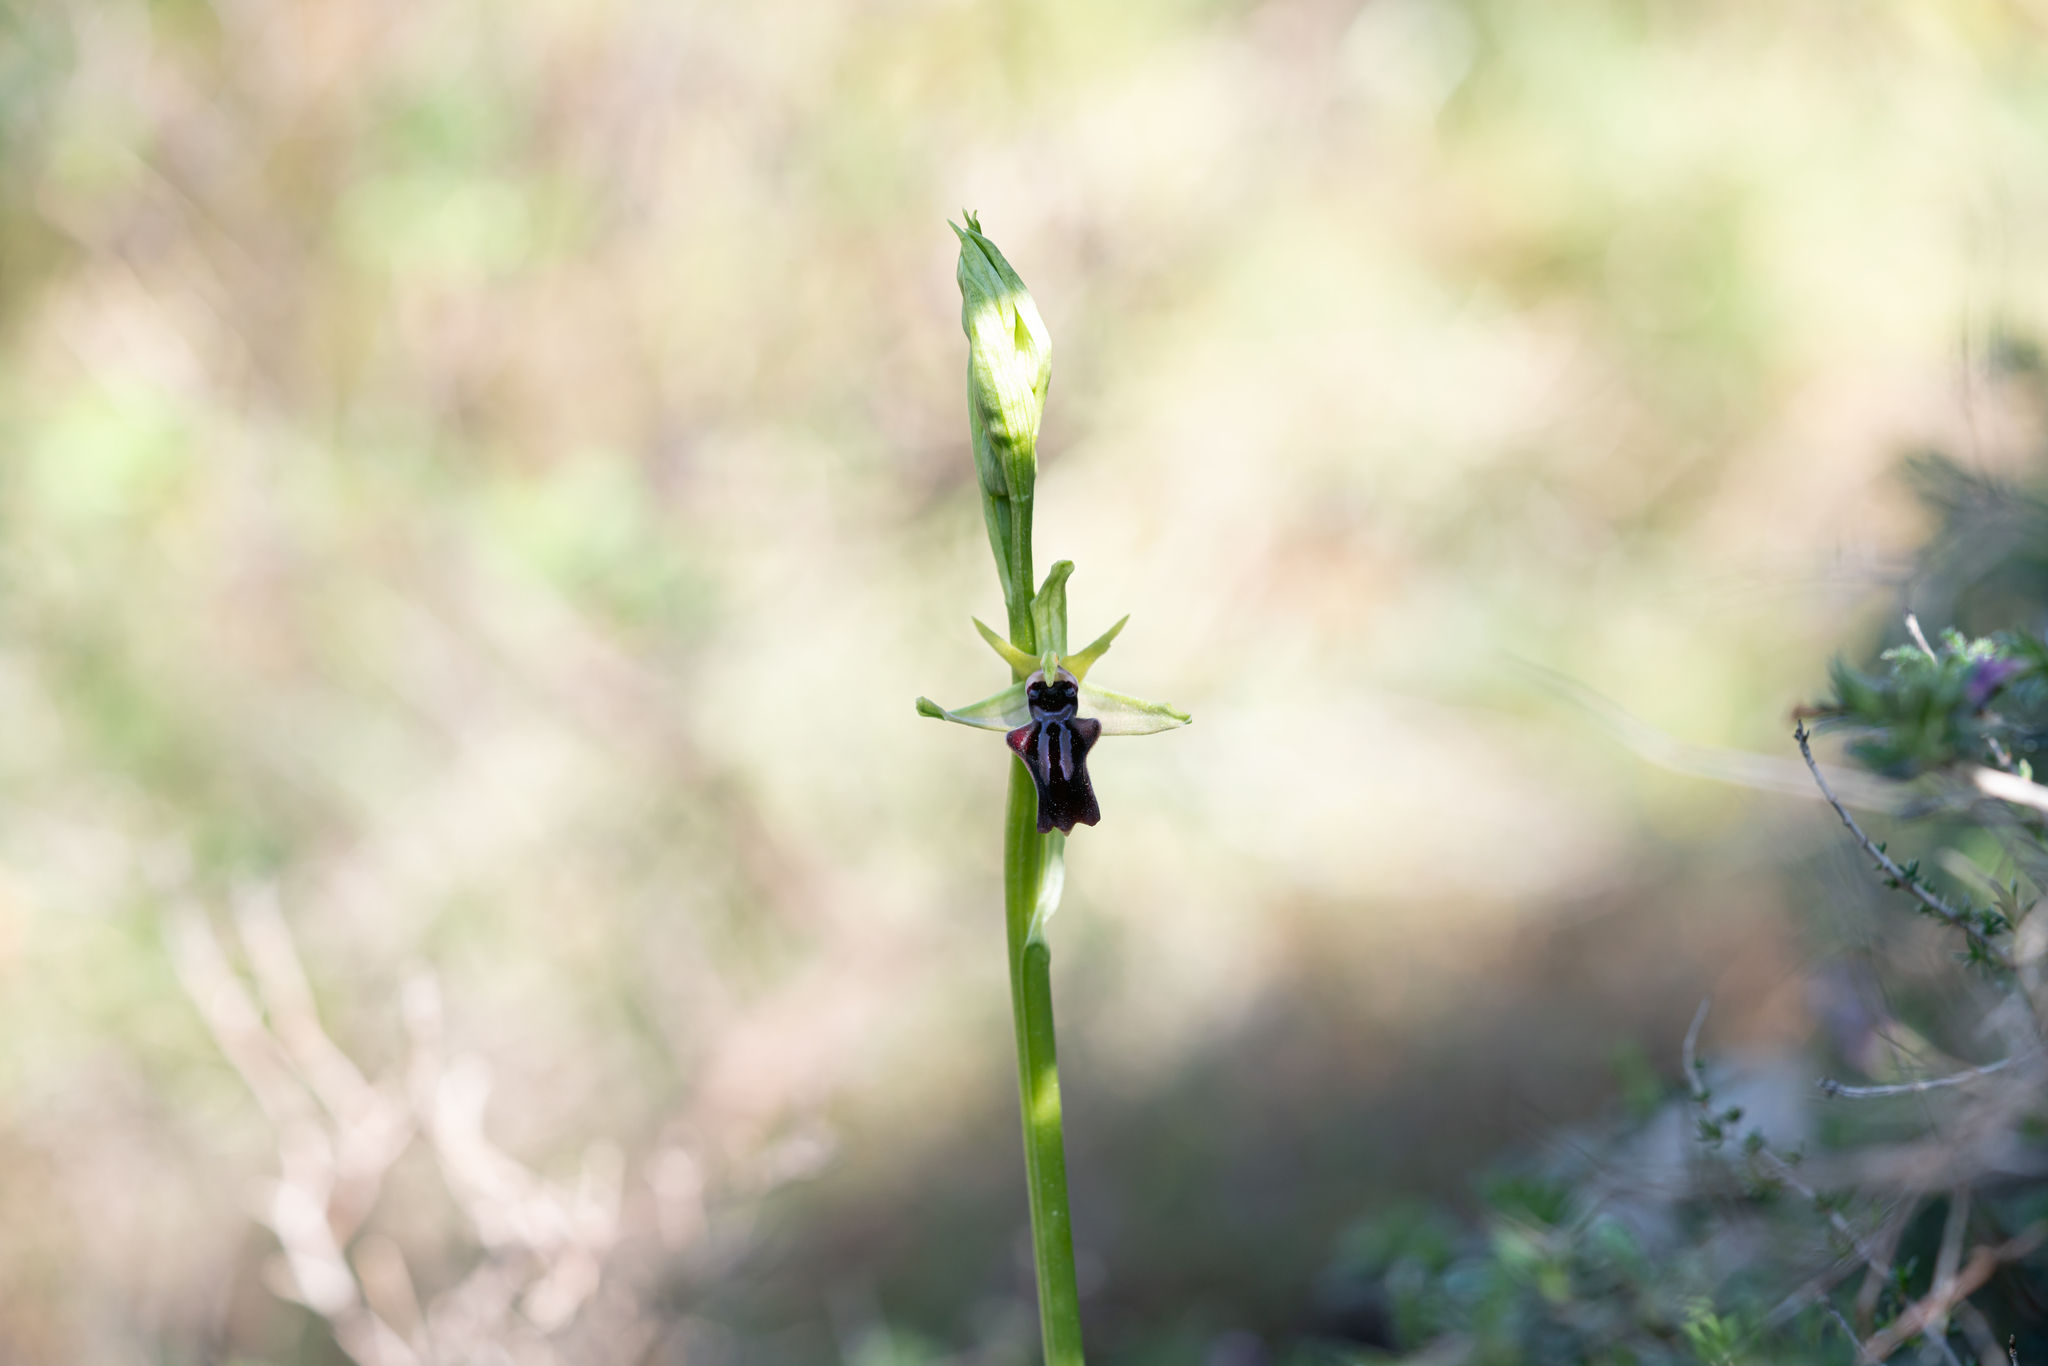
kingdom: Plantae
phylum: Tracheophyta
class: Liliopsida
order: Asparagales
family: Orchidaceae
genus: Ophrys
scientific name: Ophrys sphegodes
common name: Early spider-orchid
